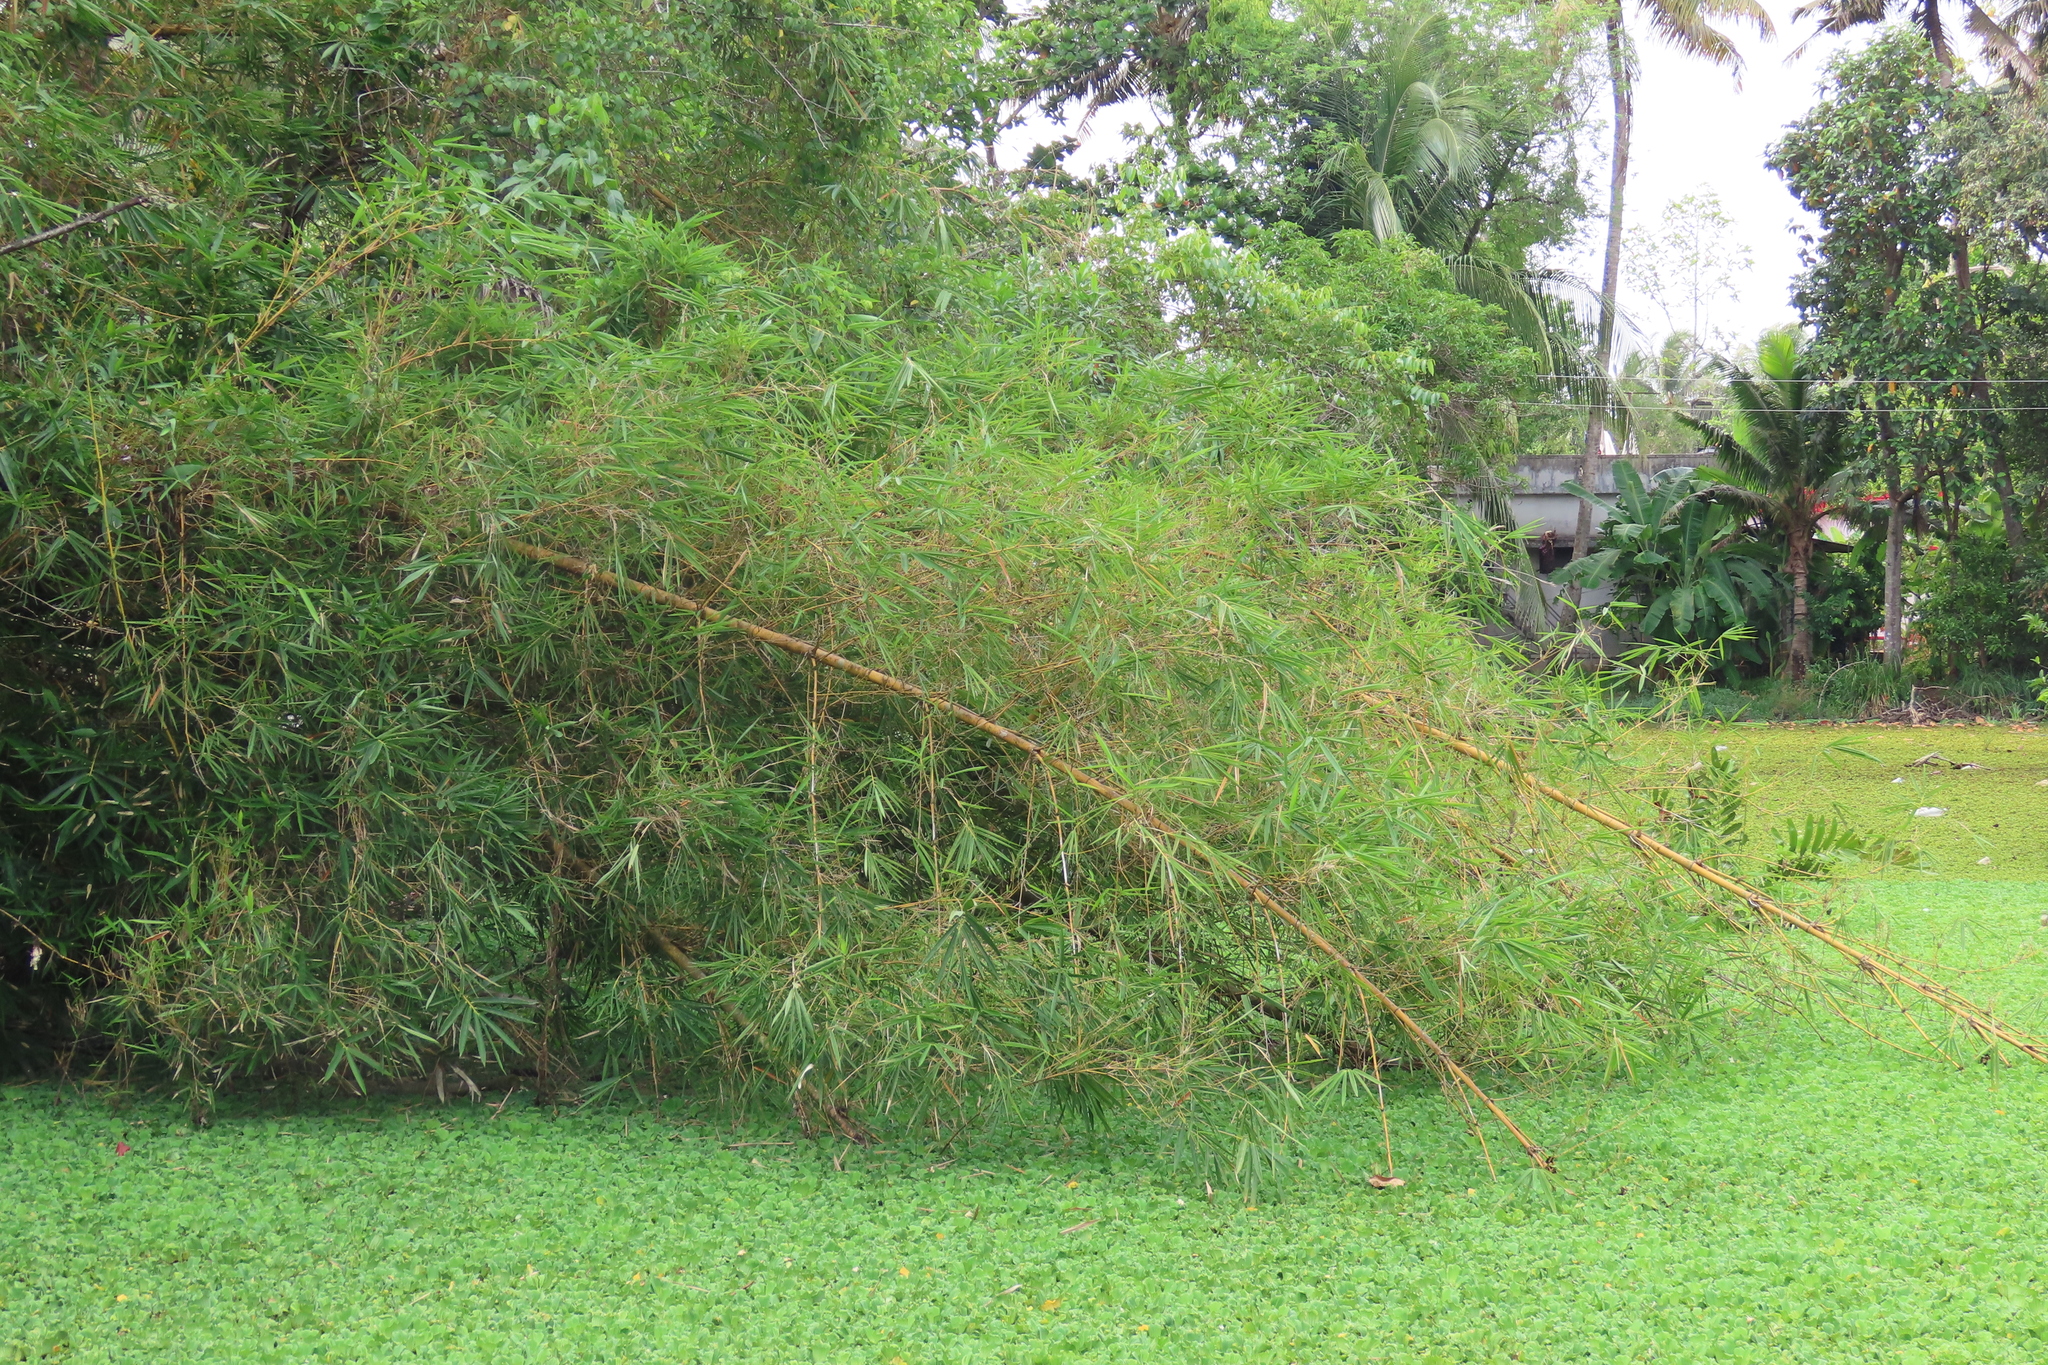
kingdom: Plantae
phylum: Tracheophyta
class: Liliopsida
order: Poales
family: Poaceae
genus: Bambusa
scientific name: Bambusa vulgaris
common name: Common bamboo
